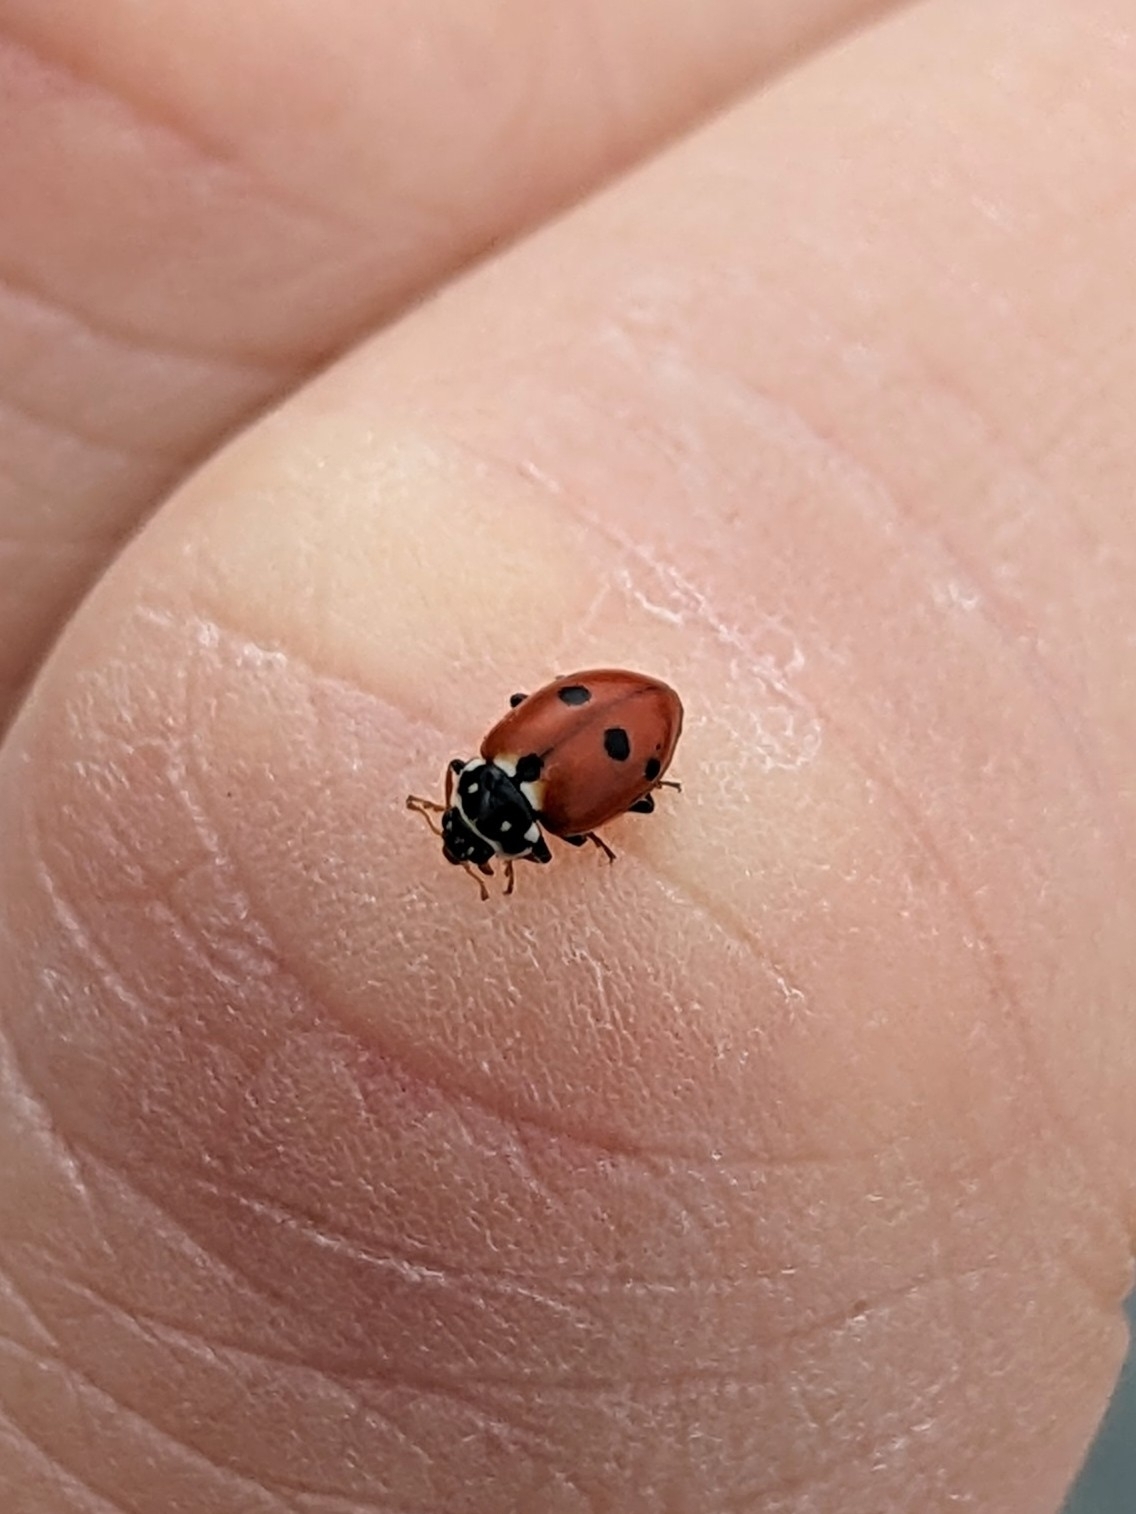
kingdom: Animalia
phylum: Arthropoda
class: Insecta
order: Coleoptera
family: Coccinellidae
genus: Hippodamia
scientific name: Hippodamia variegata
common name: Ladybird beetle
